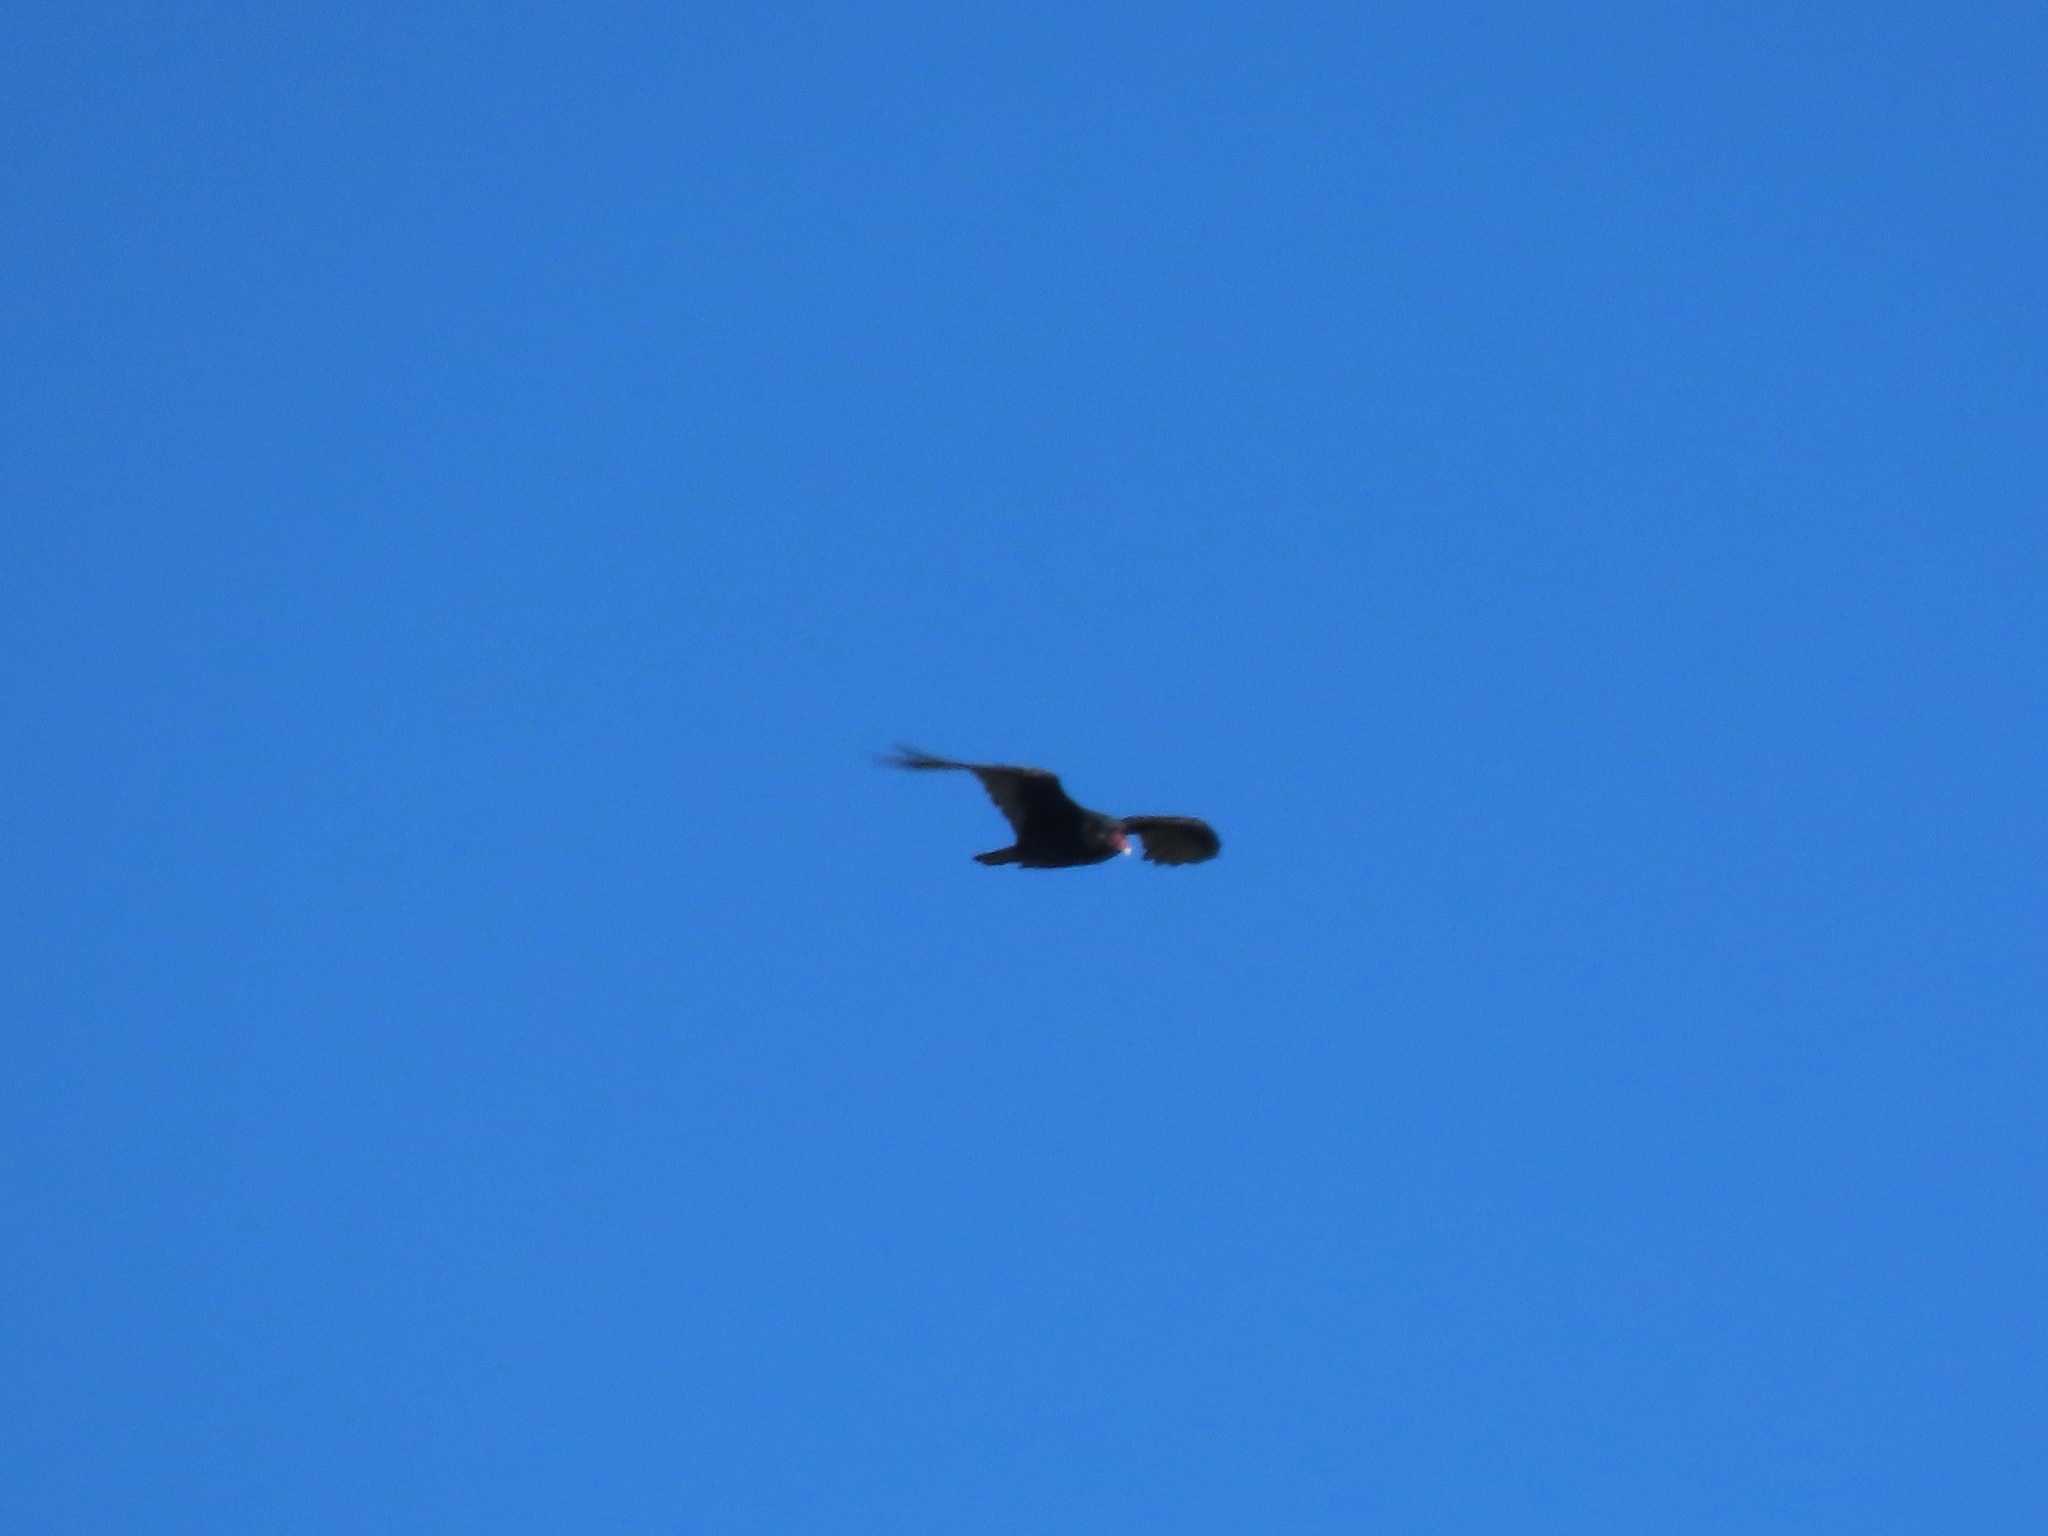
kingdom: Animalia
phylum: Chordata
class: Aves
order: Accipitriformes
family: Cathartidae
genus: Cathartes
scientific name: Cathartes aura
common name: Turkey vulture
